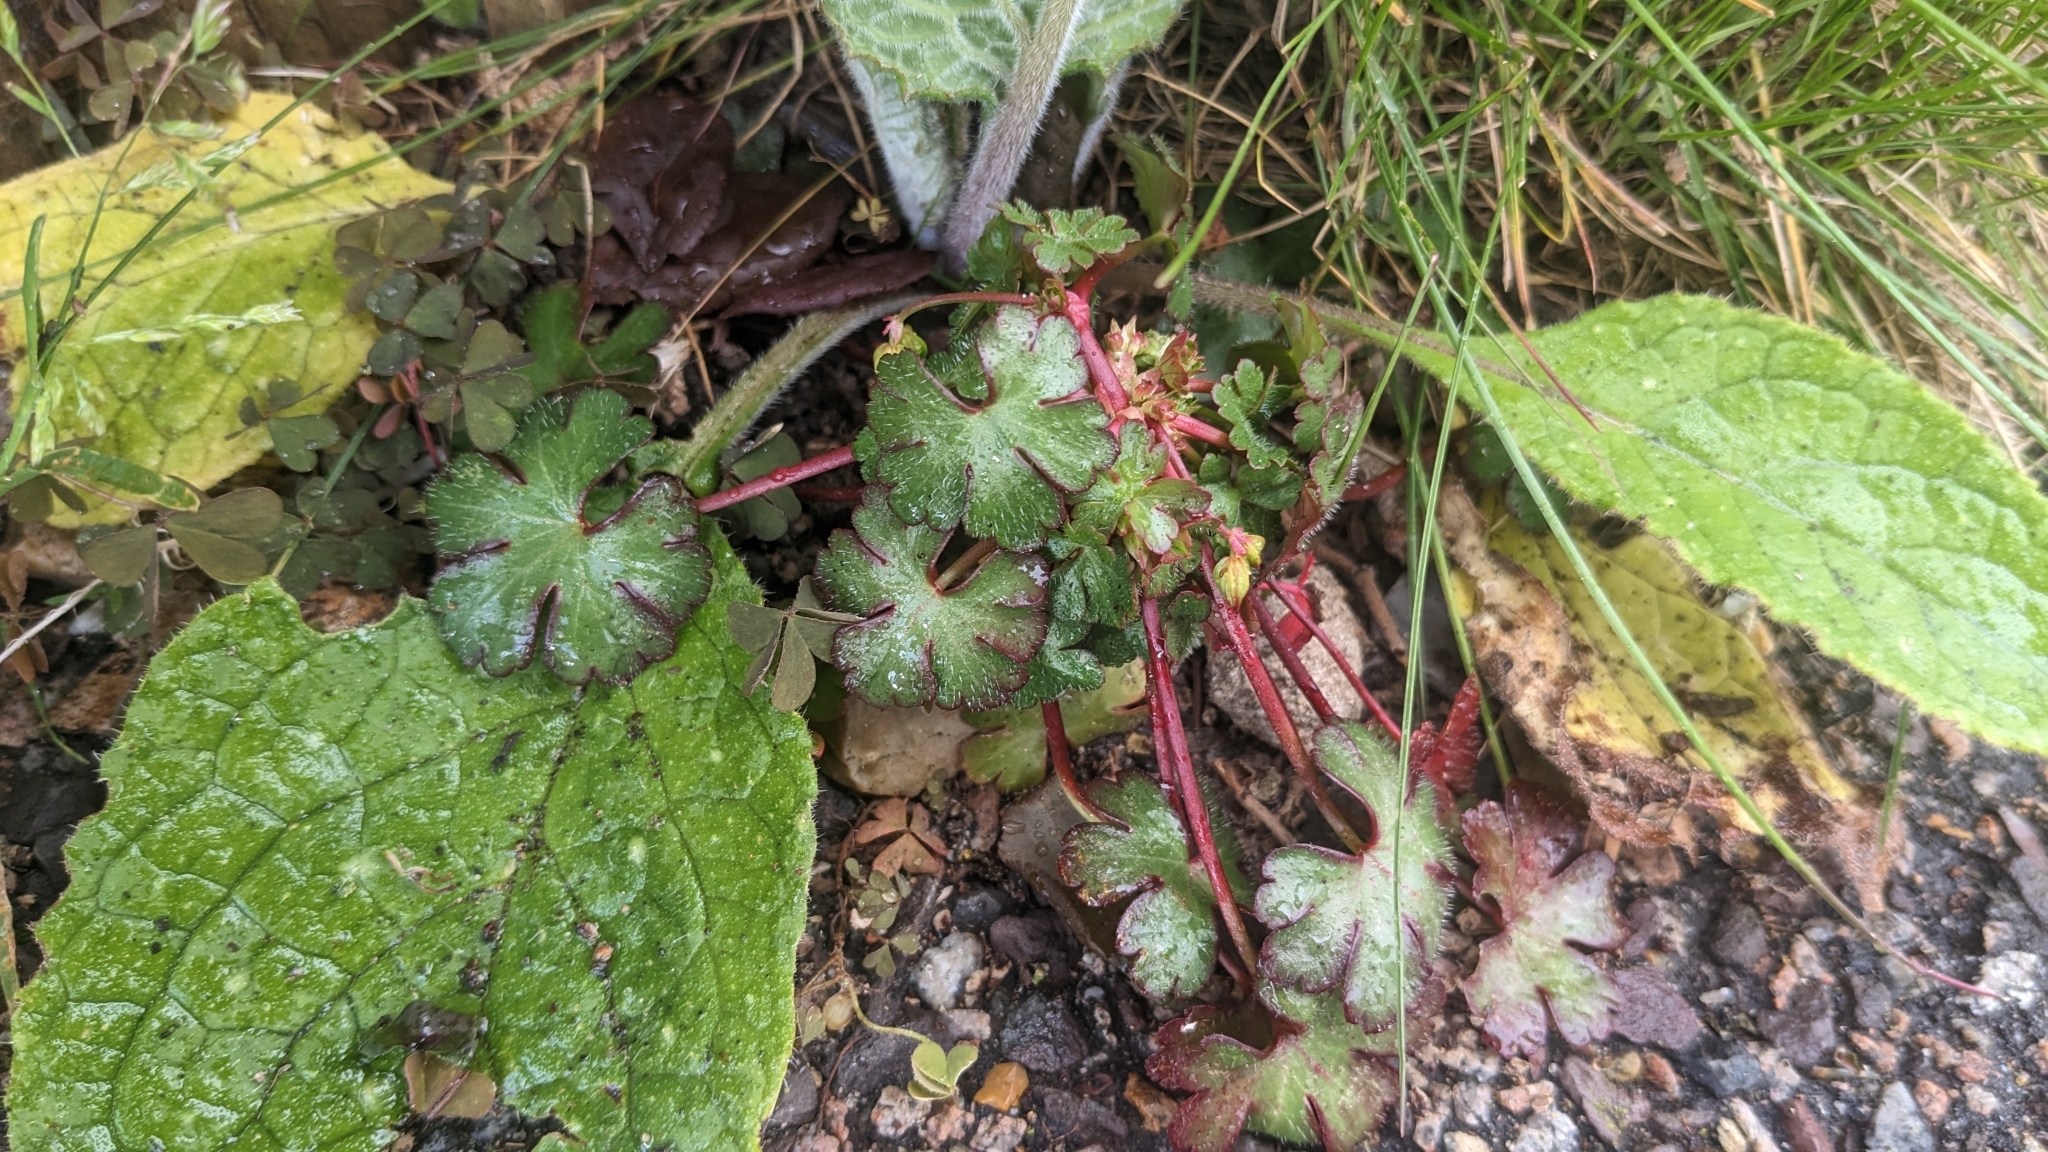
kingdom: Plantae
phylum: Tracheophyta
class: Magnoliopsida
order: Geraniales
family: Geraniaceae
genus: Geranium
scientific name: Geranium lucidum
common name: Shining crane's-bill
